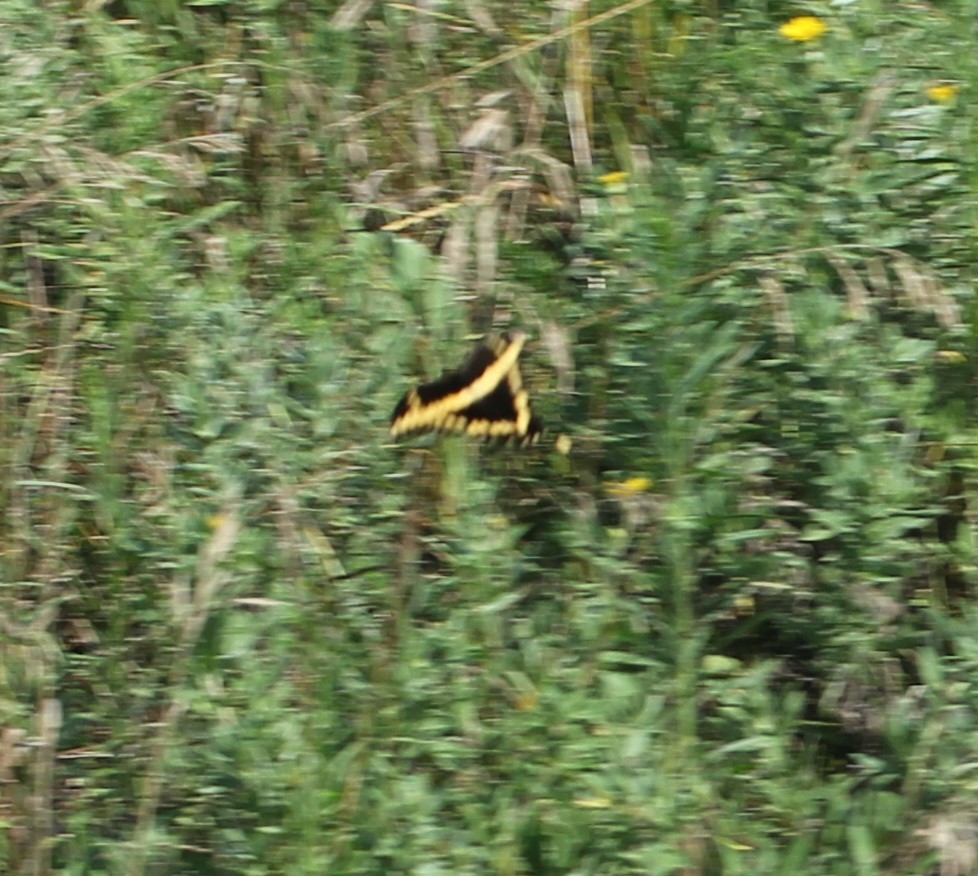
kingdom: Animalia
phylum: Arthropoda
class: Insecta
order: Lepidoptera
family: Papilionidae
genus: Papilio
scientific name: Papilio cresphontes
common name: Giant swallowtail
